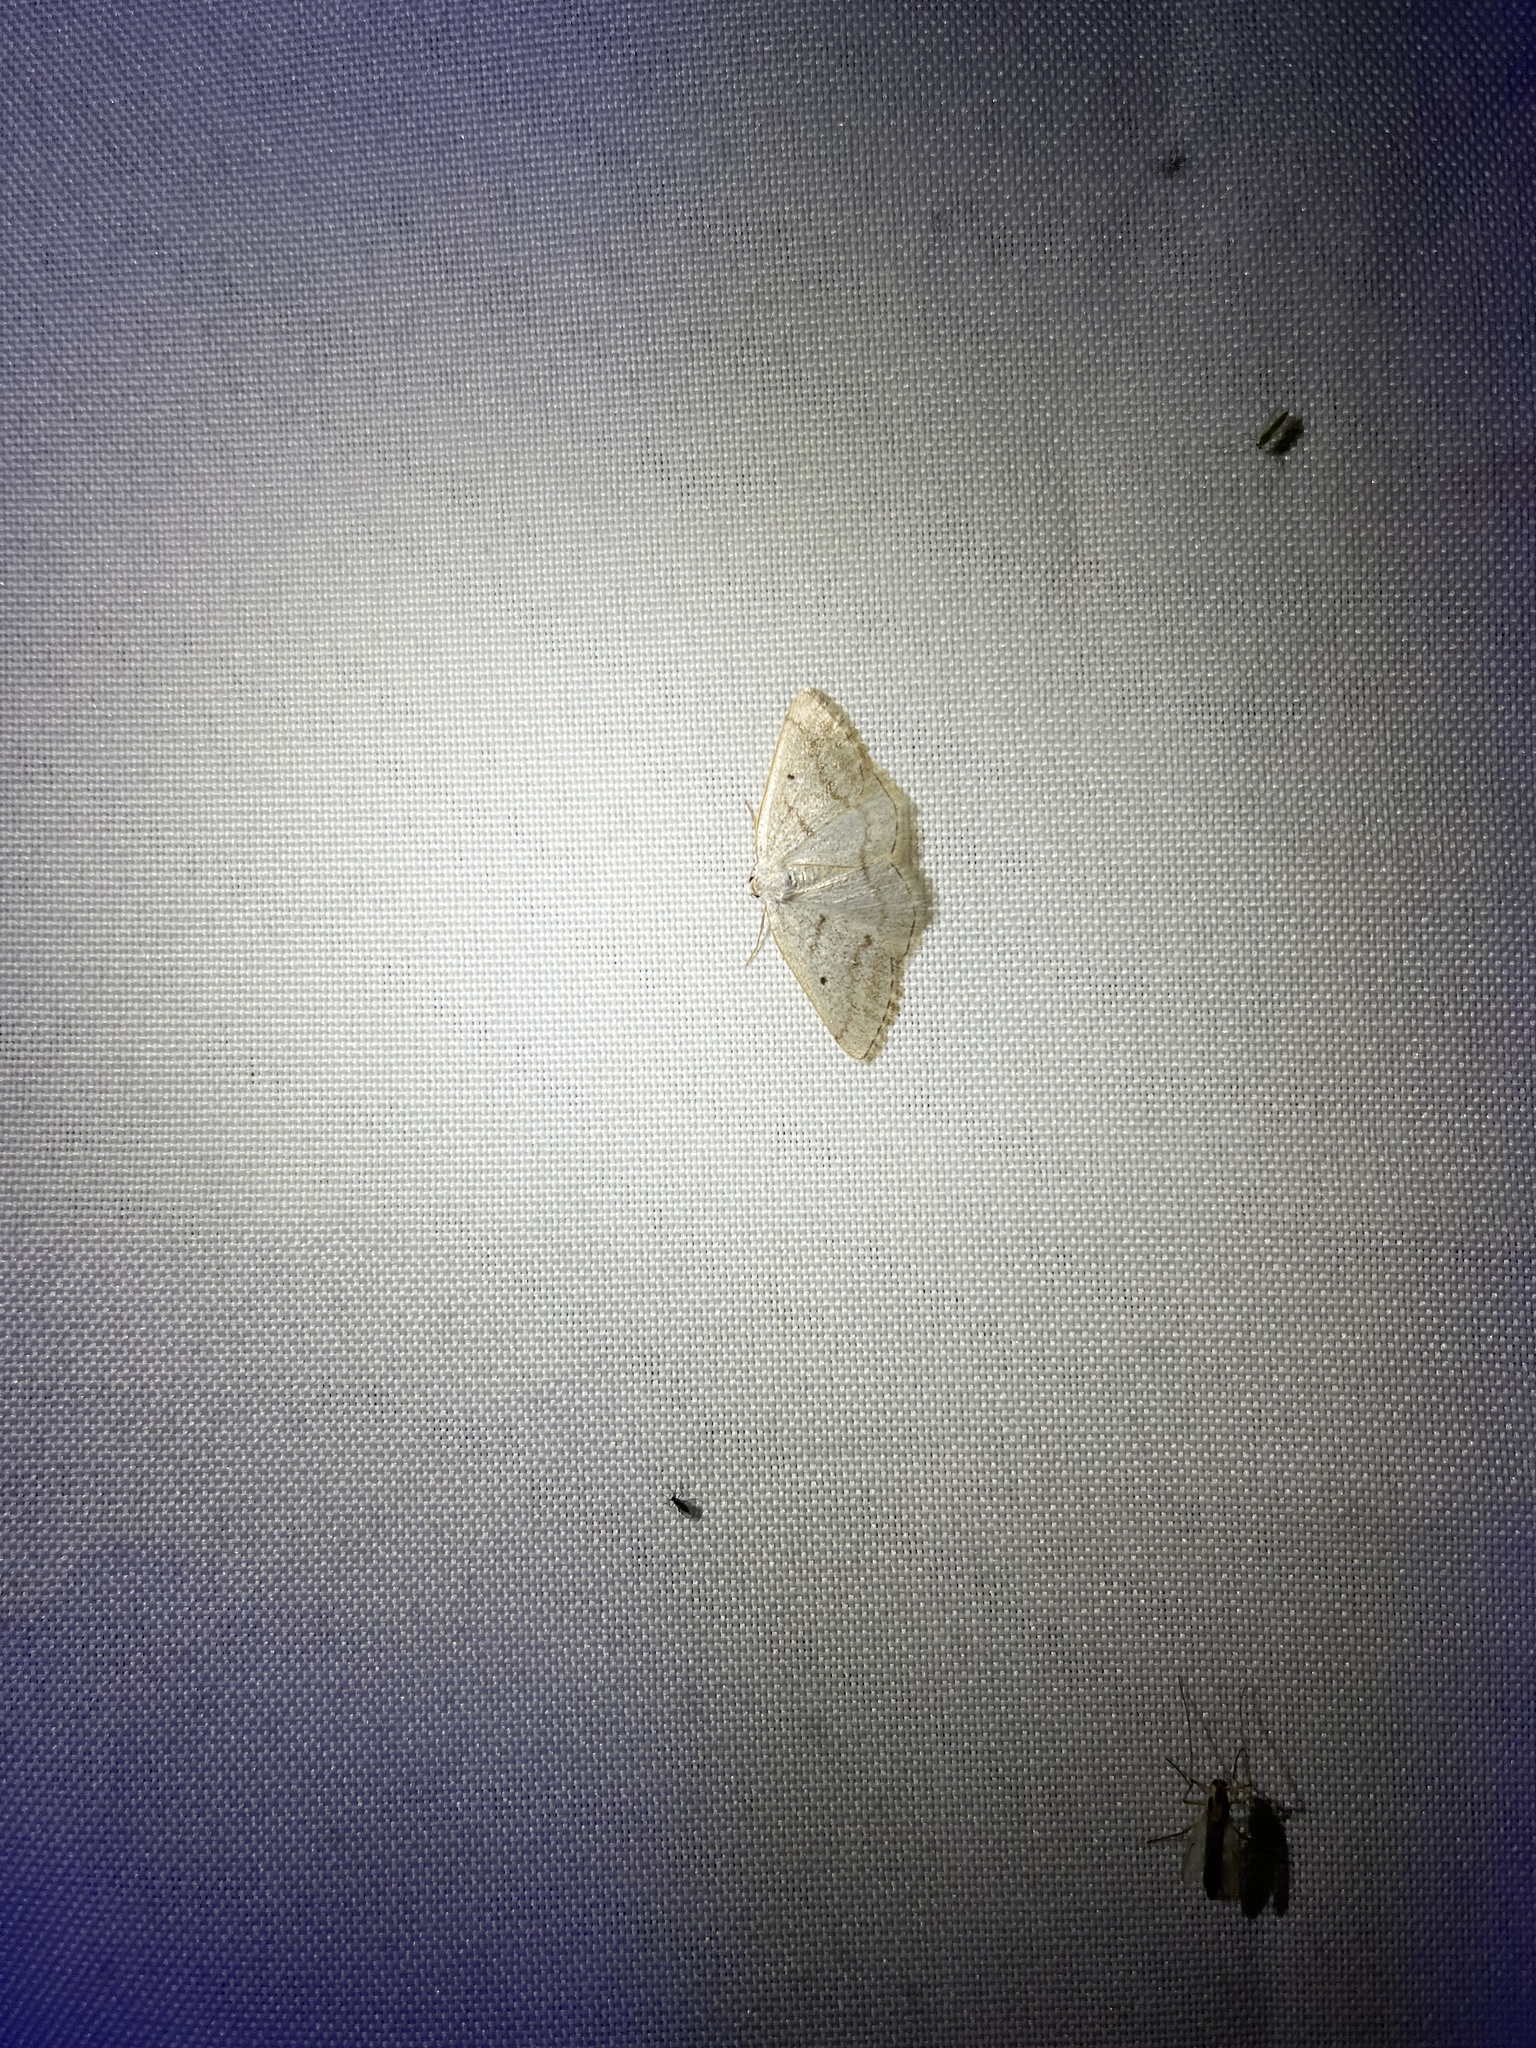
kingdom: Animalia
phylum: Arthropoda
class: Insecta
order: Lepidoptera
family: Geometridae
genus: Lomographa
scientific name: Lomographa glomeraria
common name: Gray spring moth
